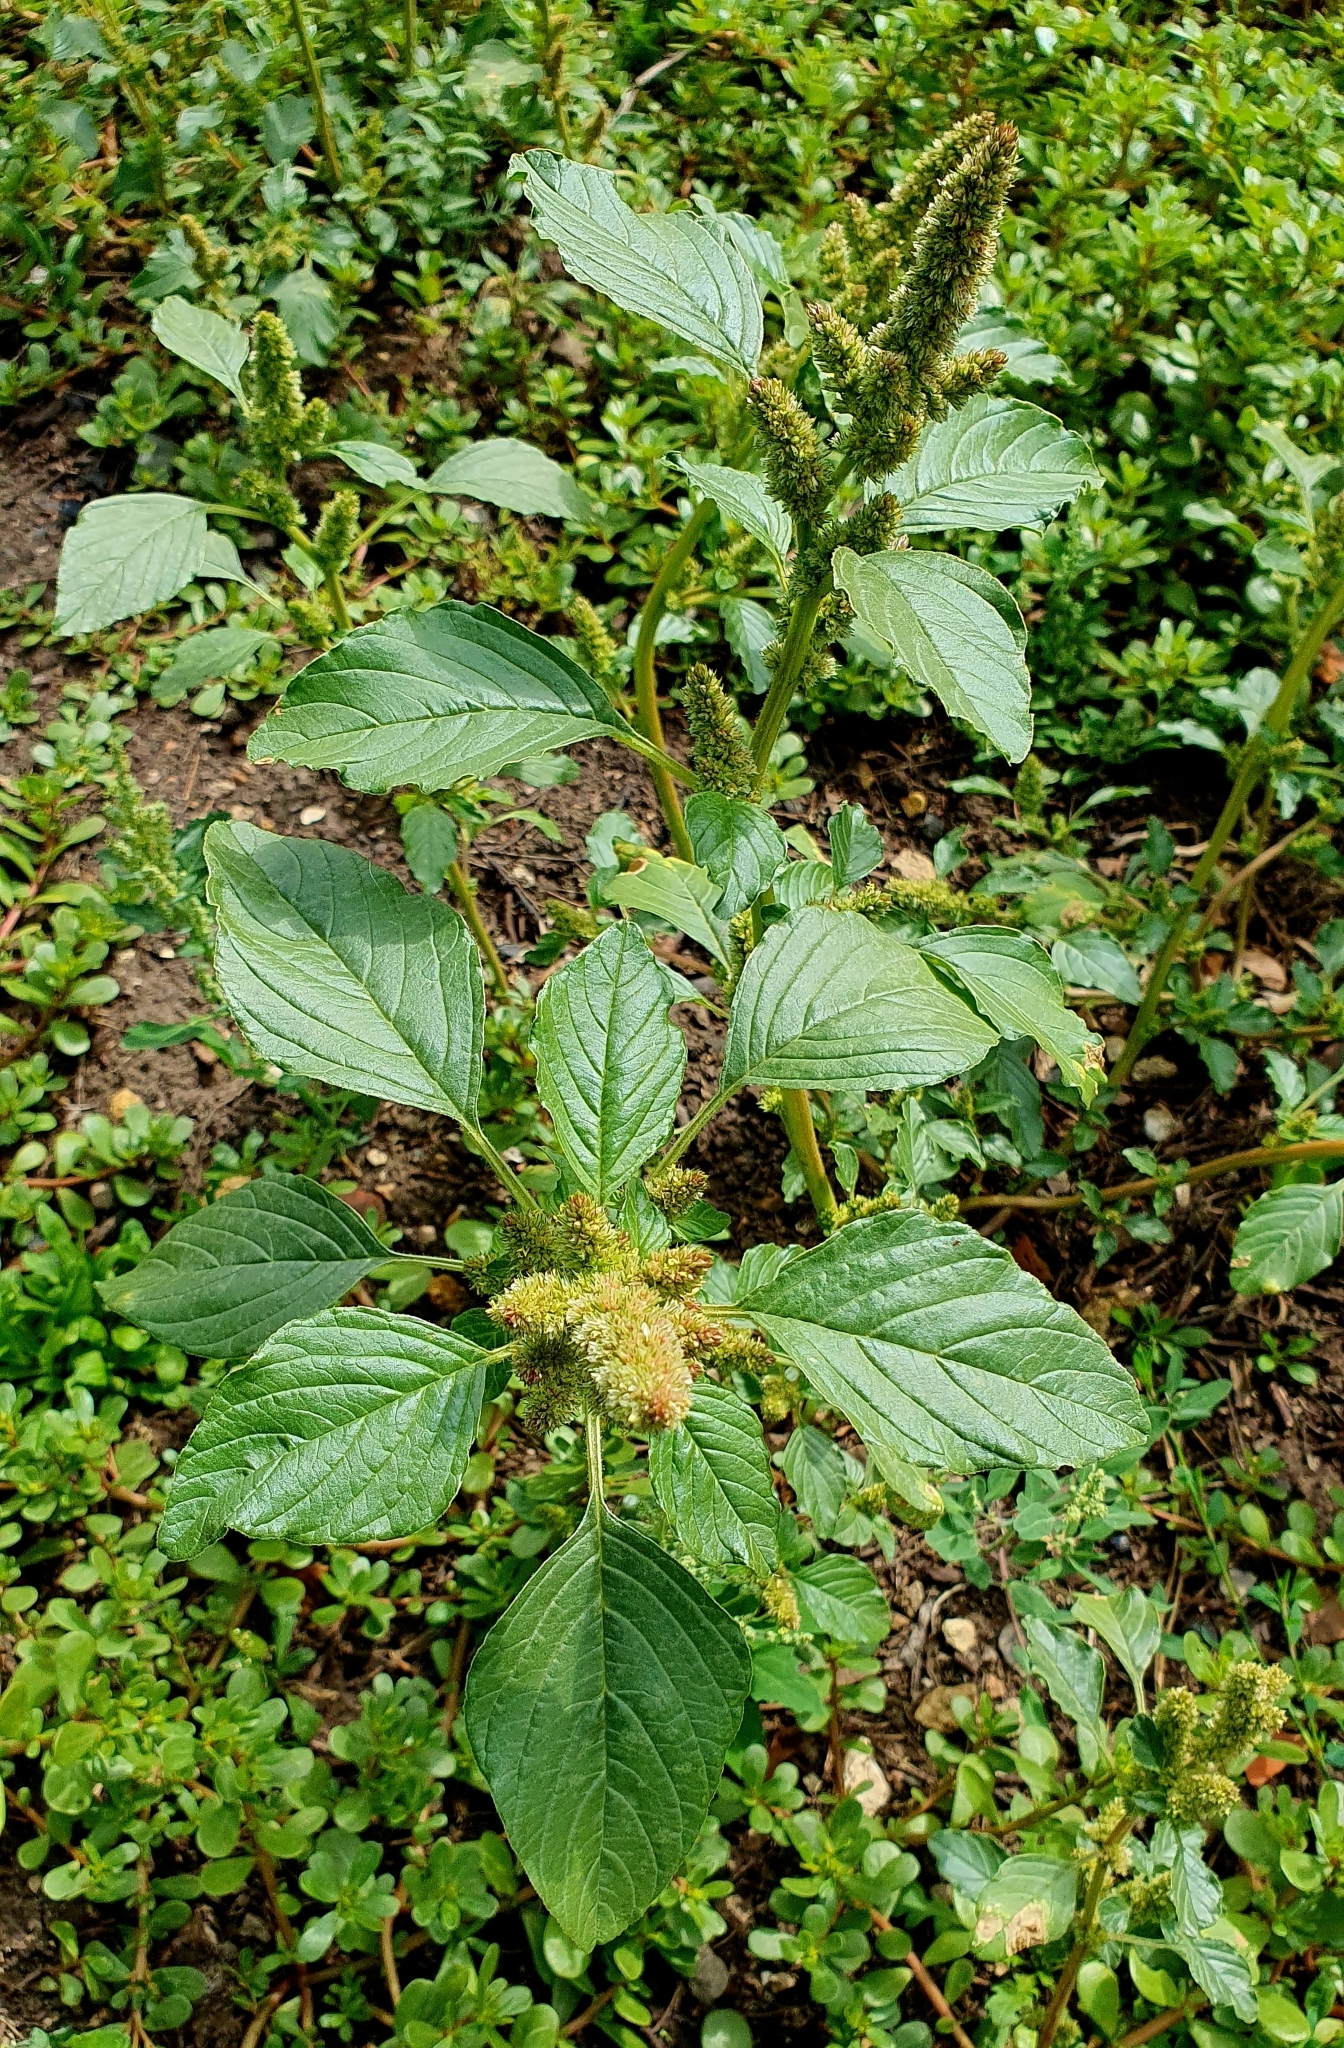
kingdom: Plantae
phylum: Tracheophyta
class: Magnoliopsida
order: Caryophyllales
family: Amaranthaceae
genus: Amaranthus
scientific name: Amaranthus retroflexus
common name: Redroot amaranth
